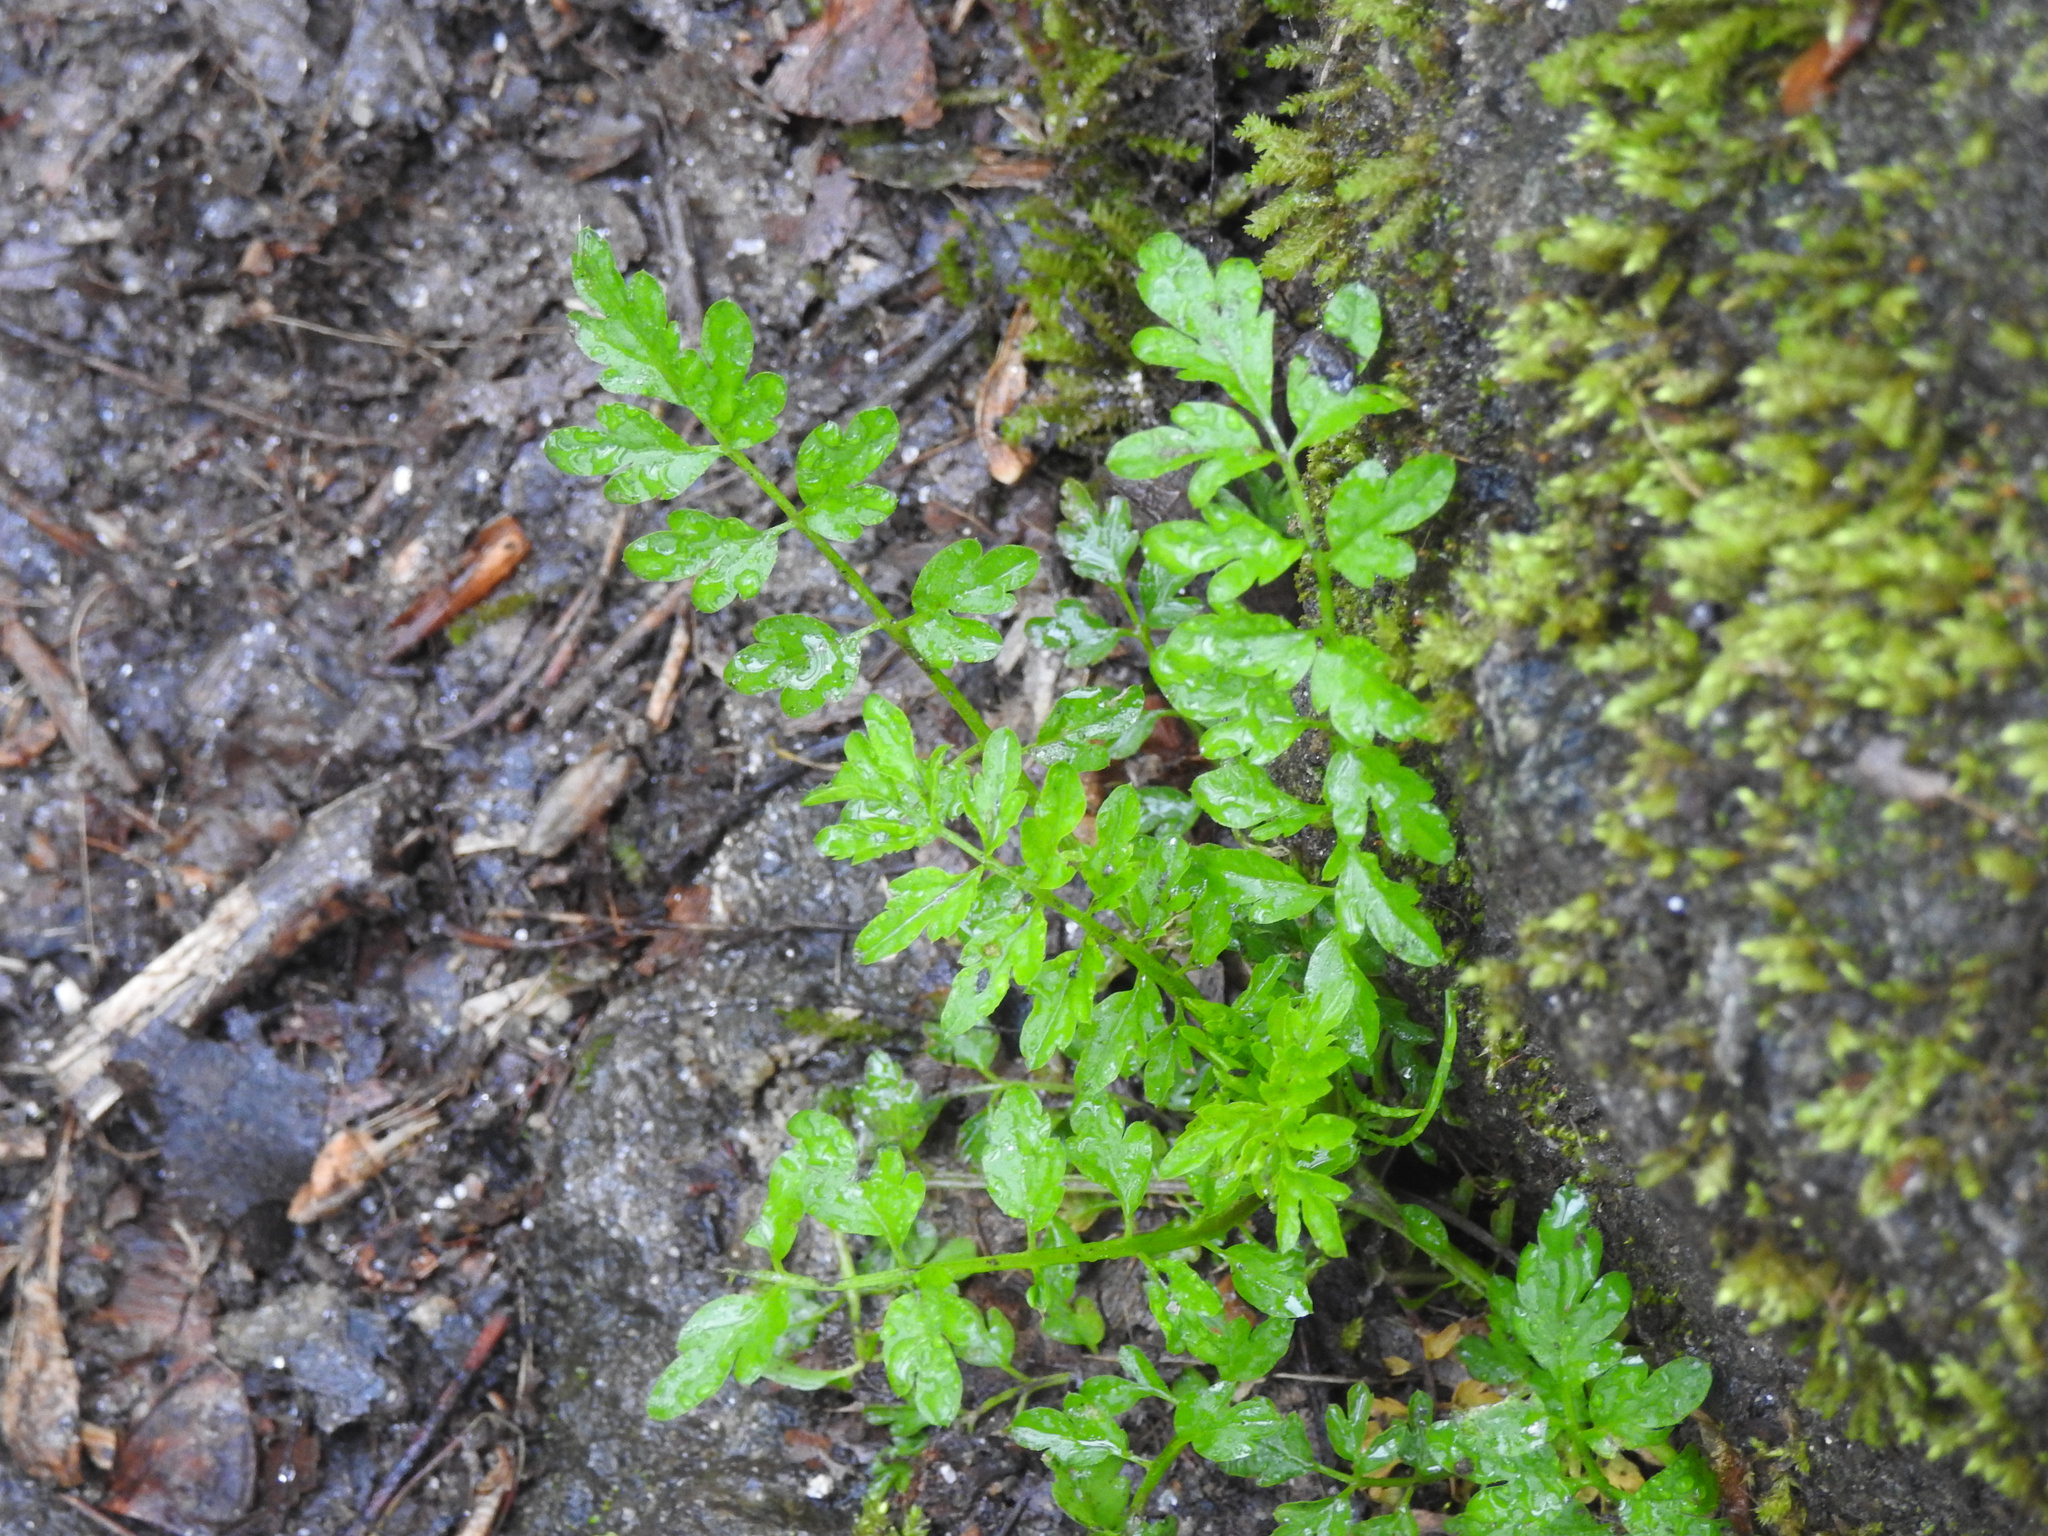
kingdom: Plantae
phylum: Tracheophyta
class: Magnoliopsida
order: Brassicales
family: Brassicaceae
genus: Cardamine
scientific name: Cardamine impatiens
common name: Narrow-leaved bitter-cress
